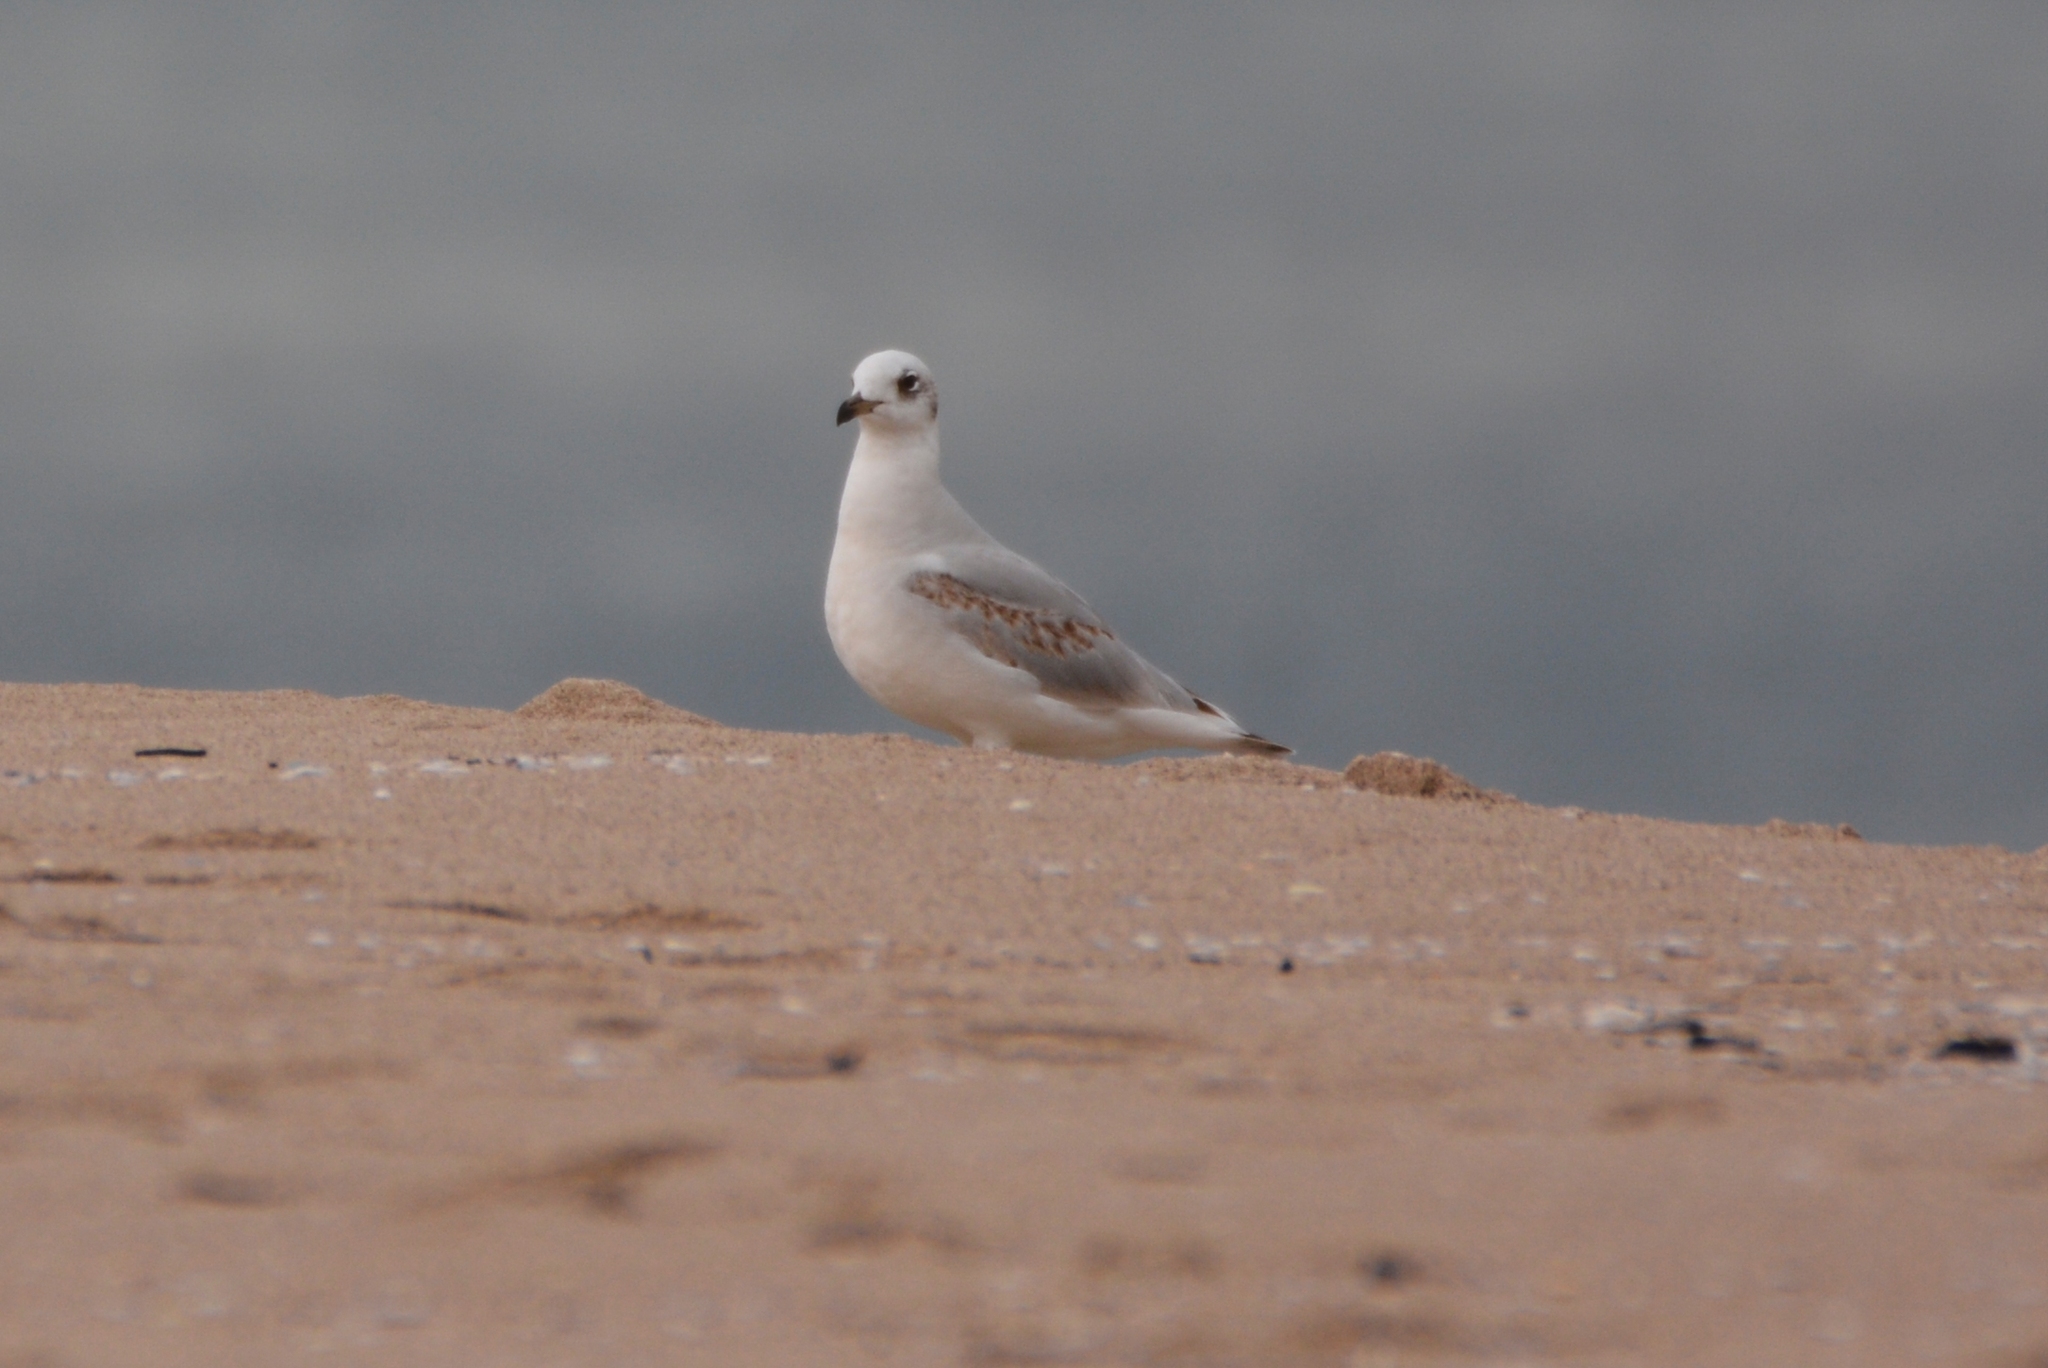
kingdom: Animalia
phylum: Chordata
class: Aves
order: Charadriiformes
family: Laridae
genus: Ichthyaetus
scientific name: Ichthyaetus melanocephalus
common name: Mediterranean gull
